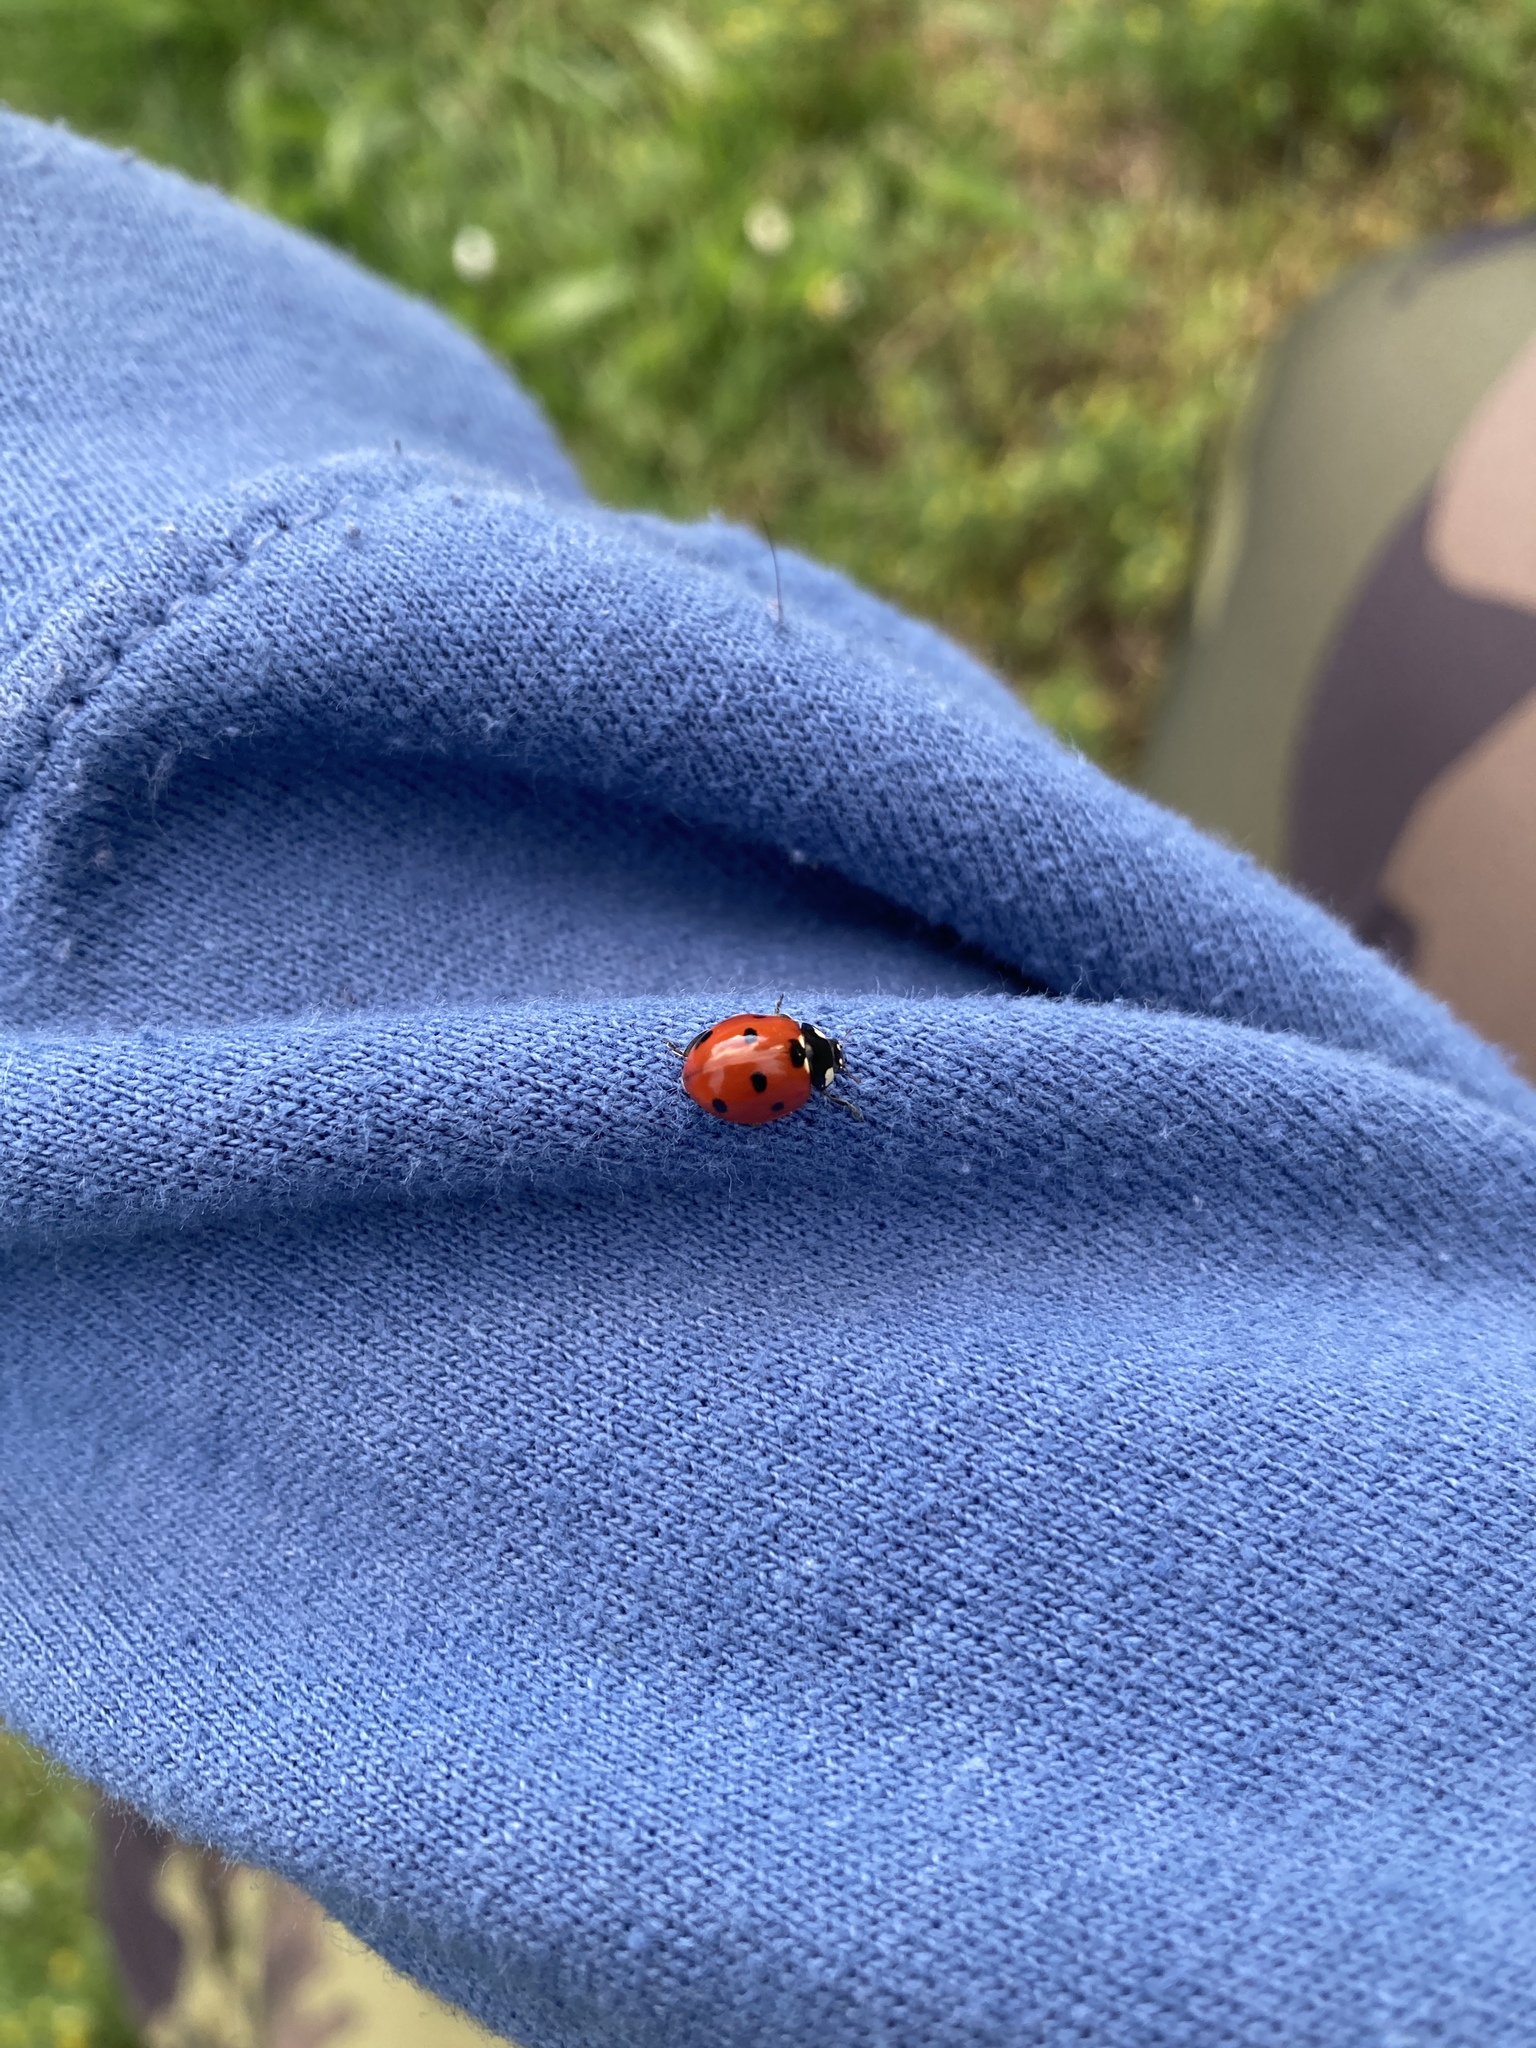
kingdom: Animalia
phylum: Arthropoda
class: Insecta
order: Coleoptera
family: Coccinellidae
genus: Coccinella
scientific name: Coccinella septempunctata
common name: Sevenspotted lady beetle
